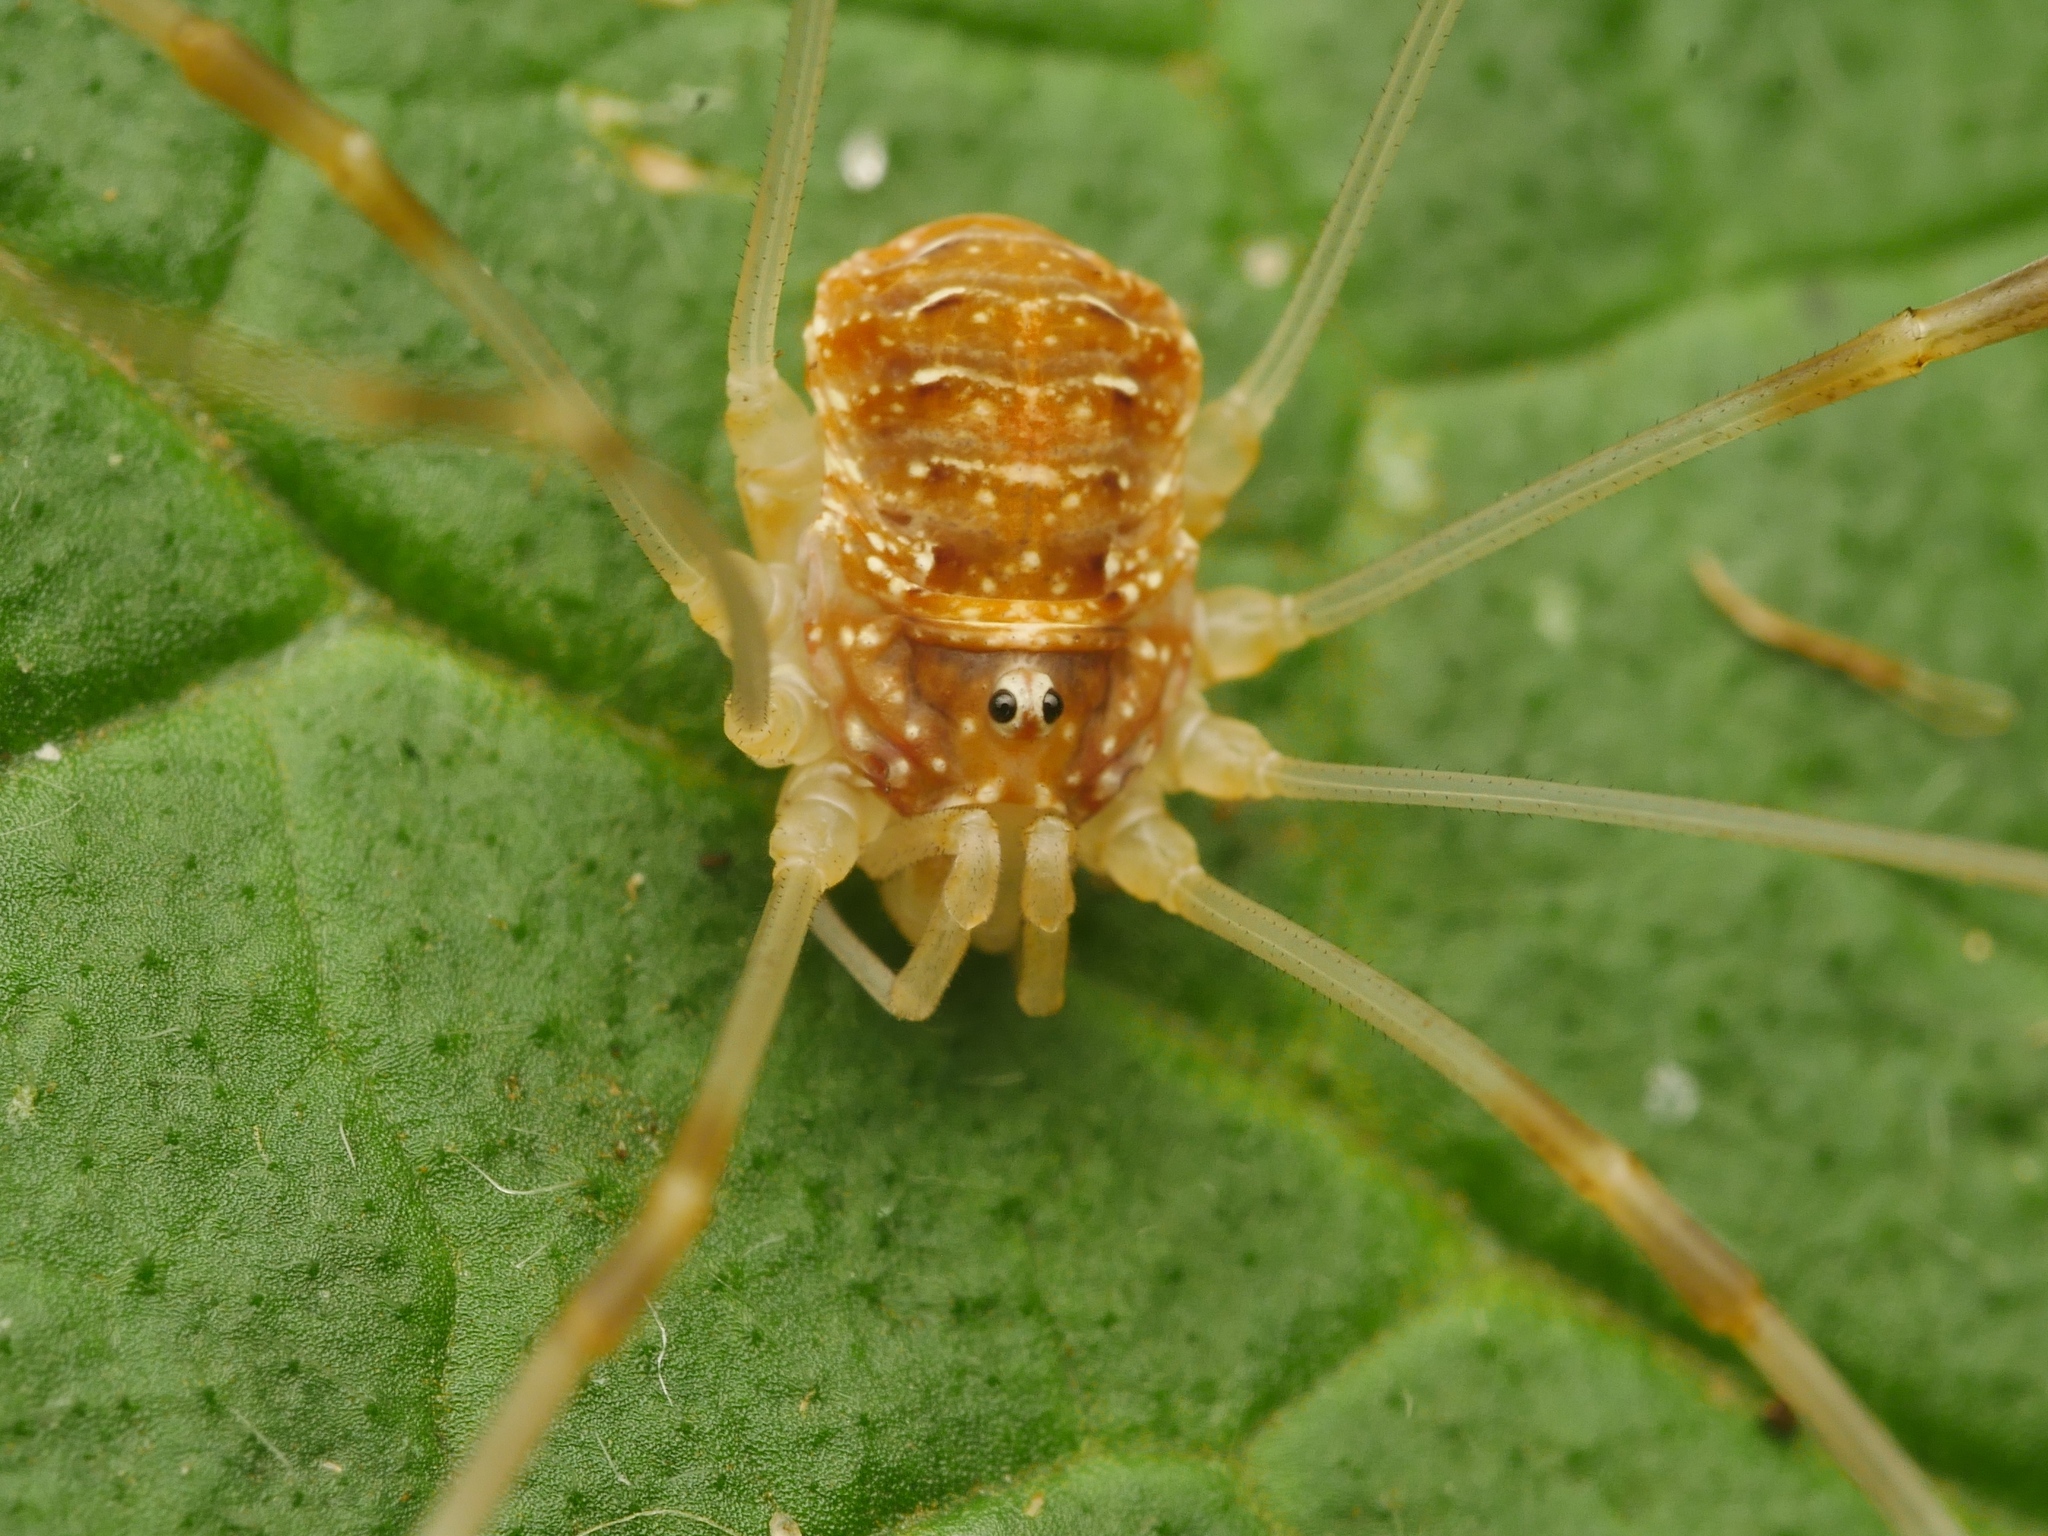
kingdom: Animalia
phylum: Arthropoda
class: Arachnida
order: Opiliones
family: Phalangiidae
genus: Opilio
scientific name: Opilio canestrinii
